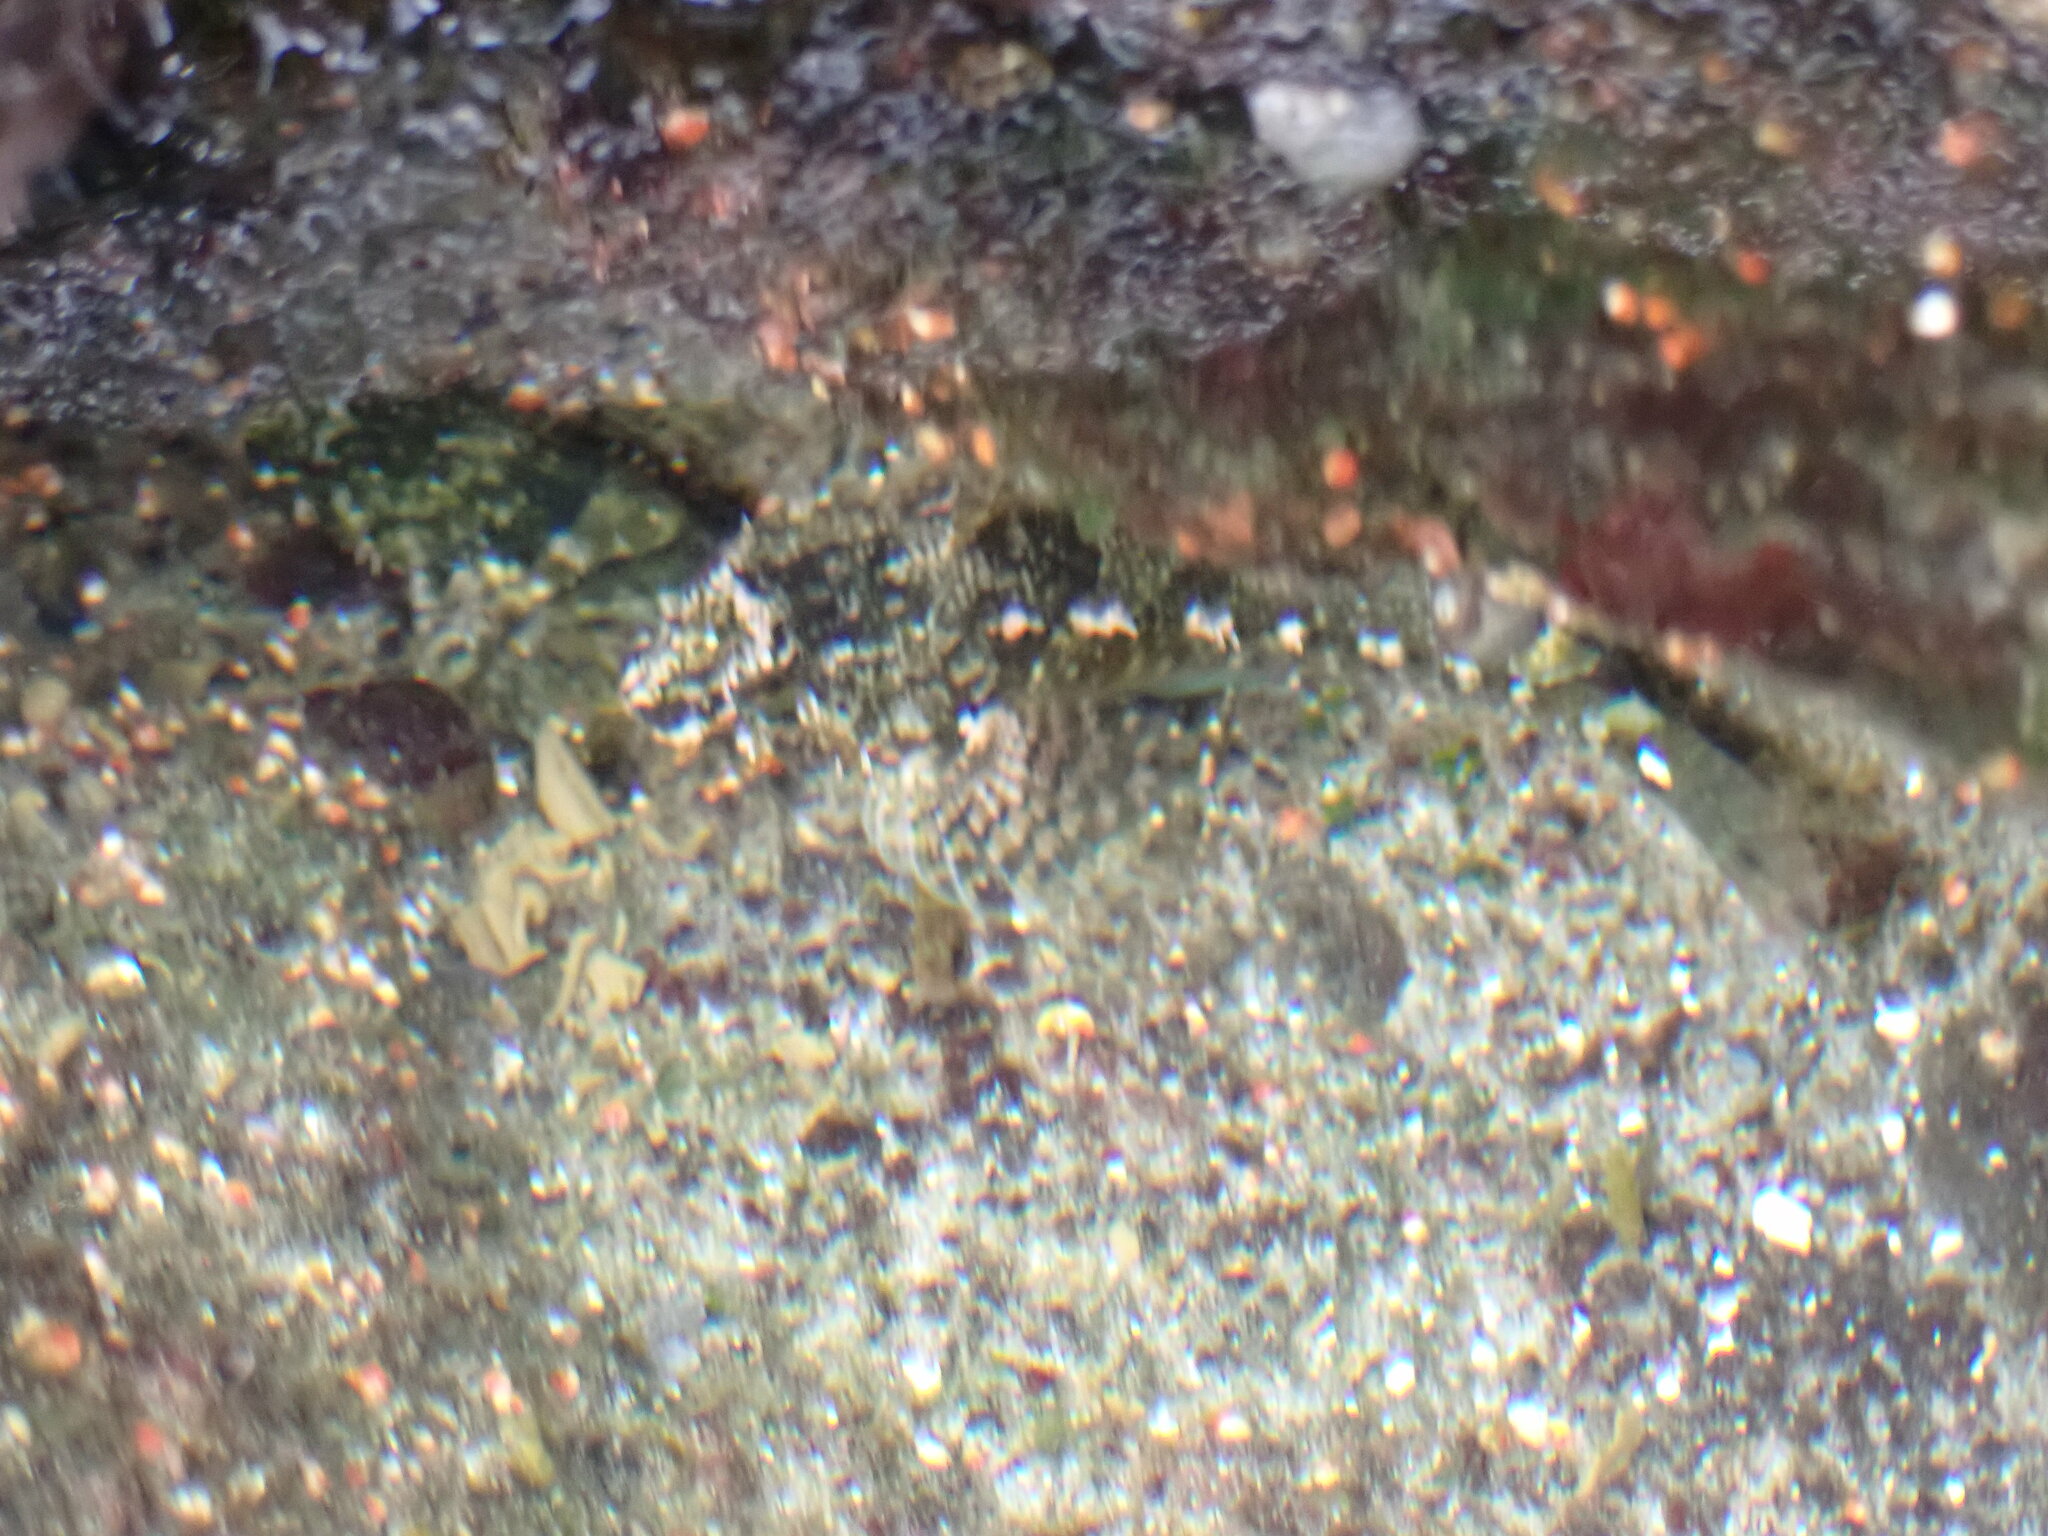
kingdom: Animalia
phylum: Chordata
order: Scorpaeniformes
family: Cottidae
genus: Oligocottus
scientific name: Oligocottus maculosus
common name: Tidepool sculpin
